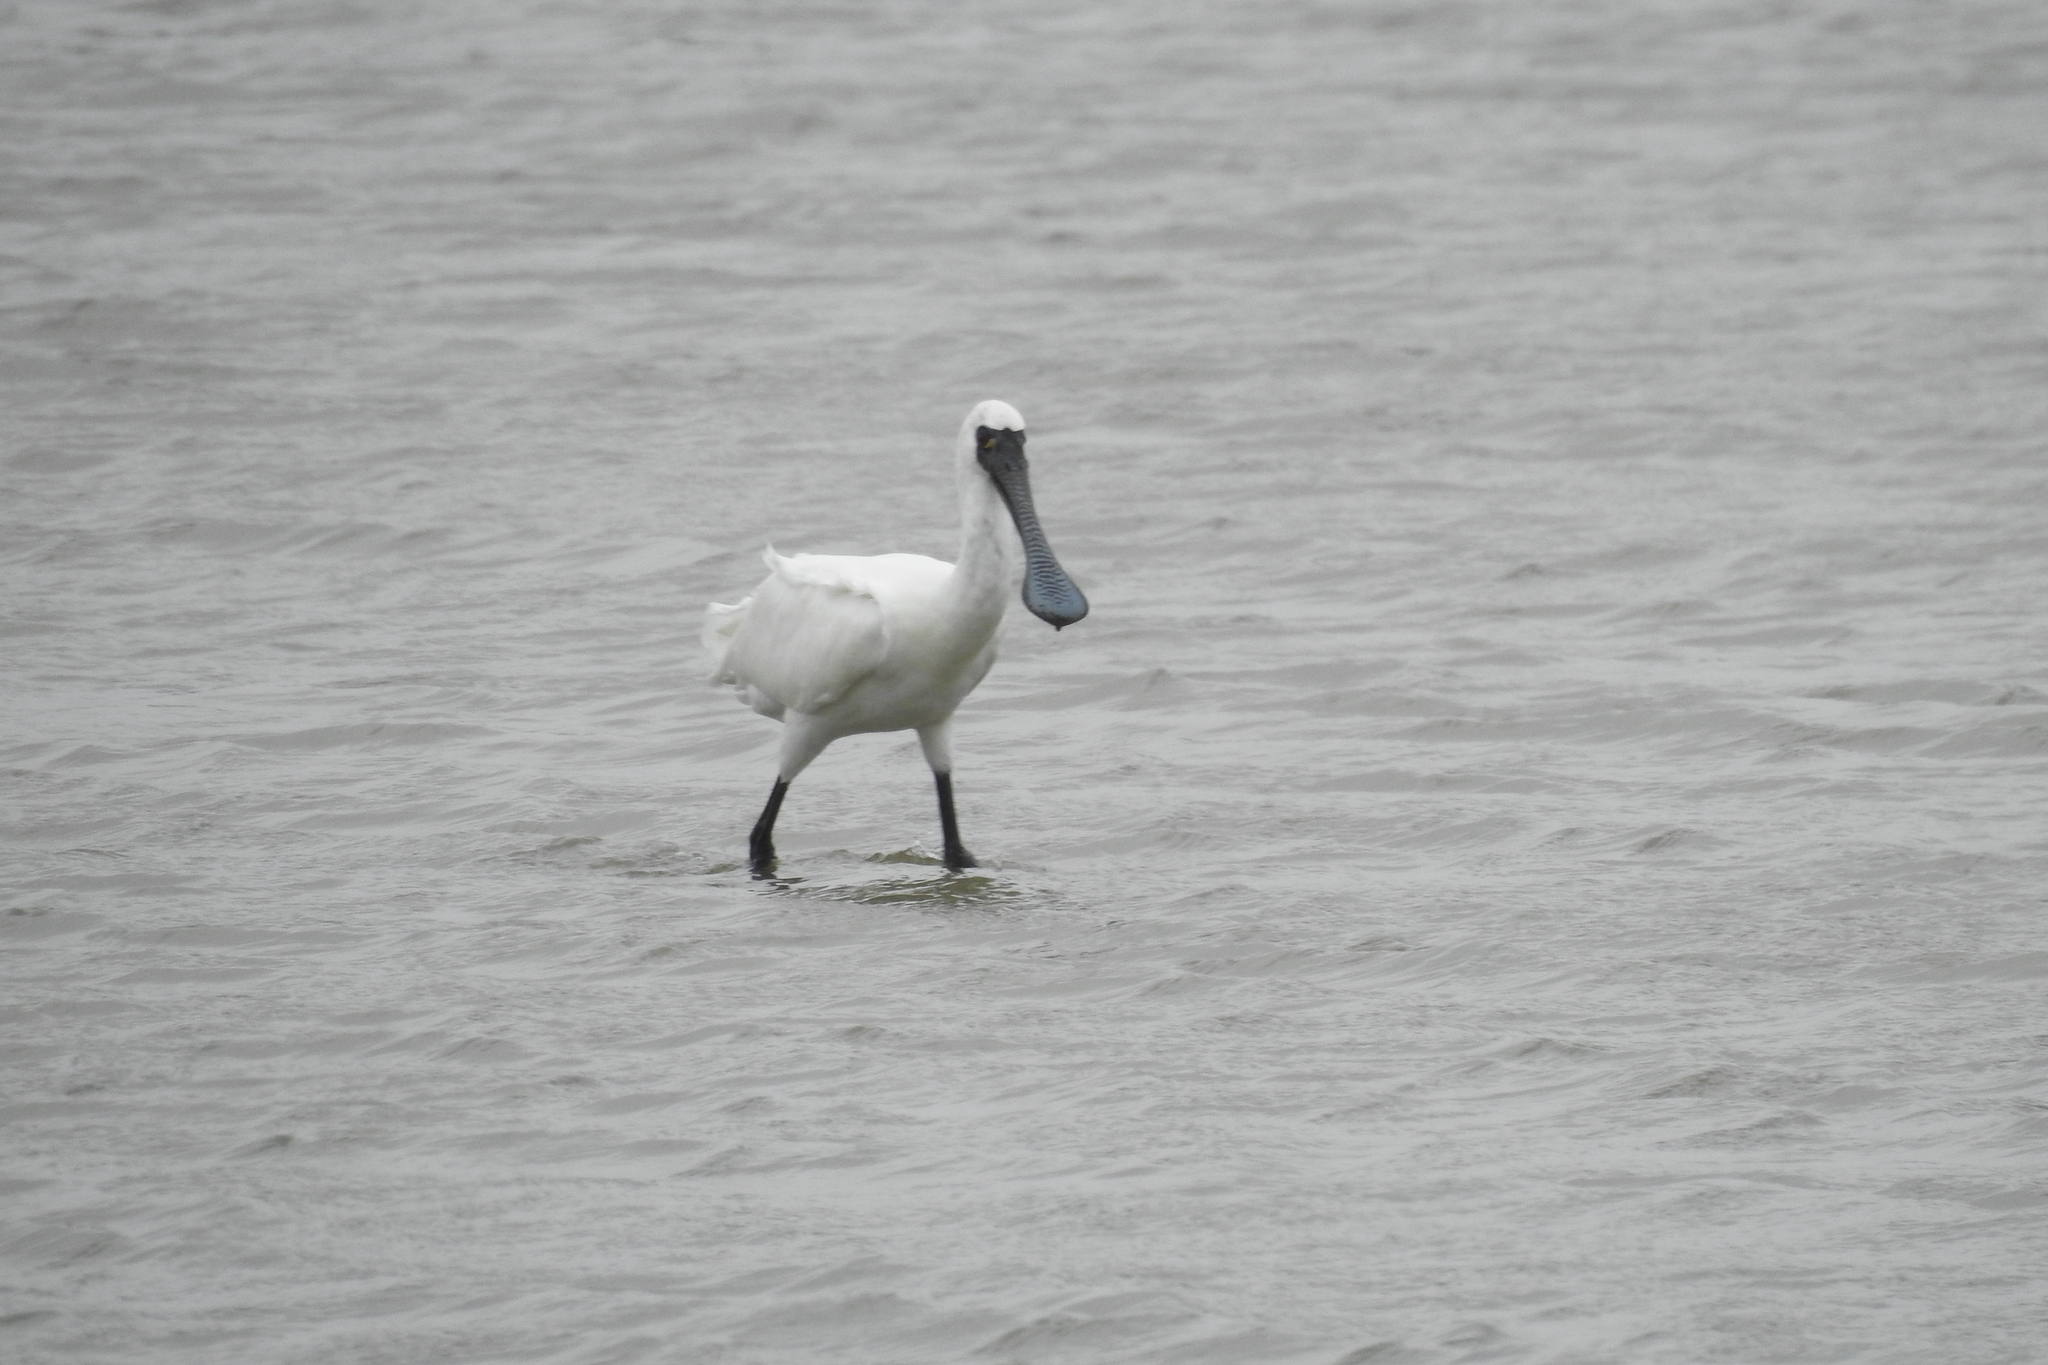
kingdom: Animalia
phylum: Chordata
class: Aves
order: Pelecaniformes
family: Threskiornithidae
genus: Platalea
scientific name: Platalea minor
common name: Black-faced spoonbill
